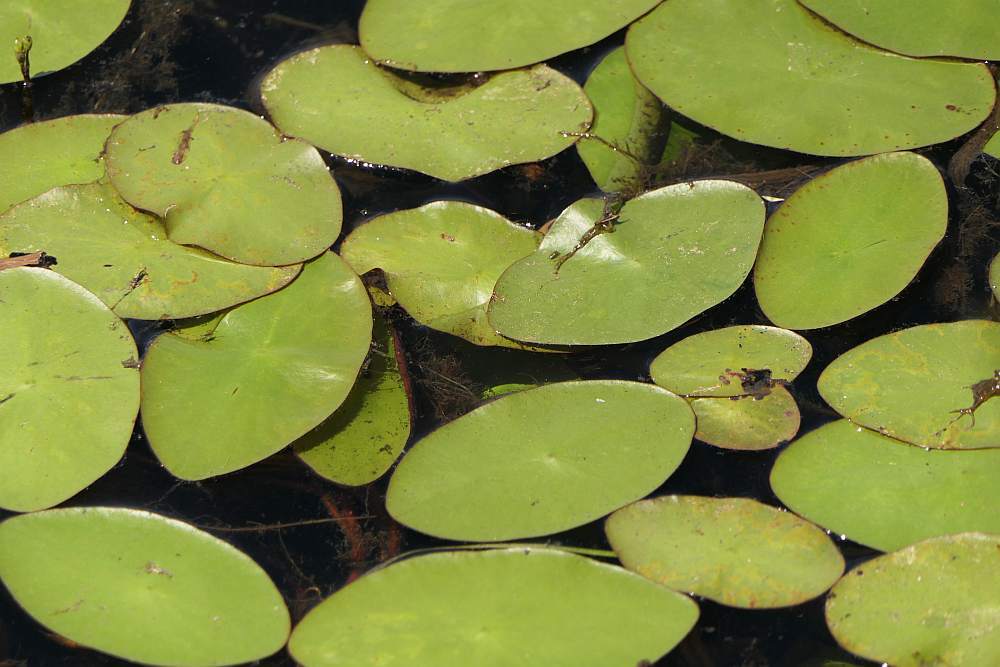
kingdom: Plantae
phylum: Tracheophyta
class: Magnoliopsida
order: Nymphaeales
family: Cabombaceae
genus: Brasenia
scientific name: Brasenia schreberi
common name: Water-shield
